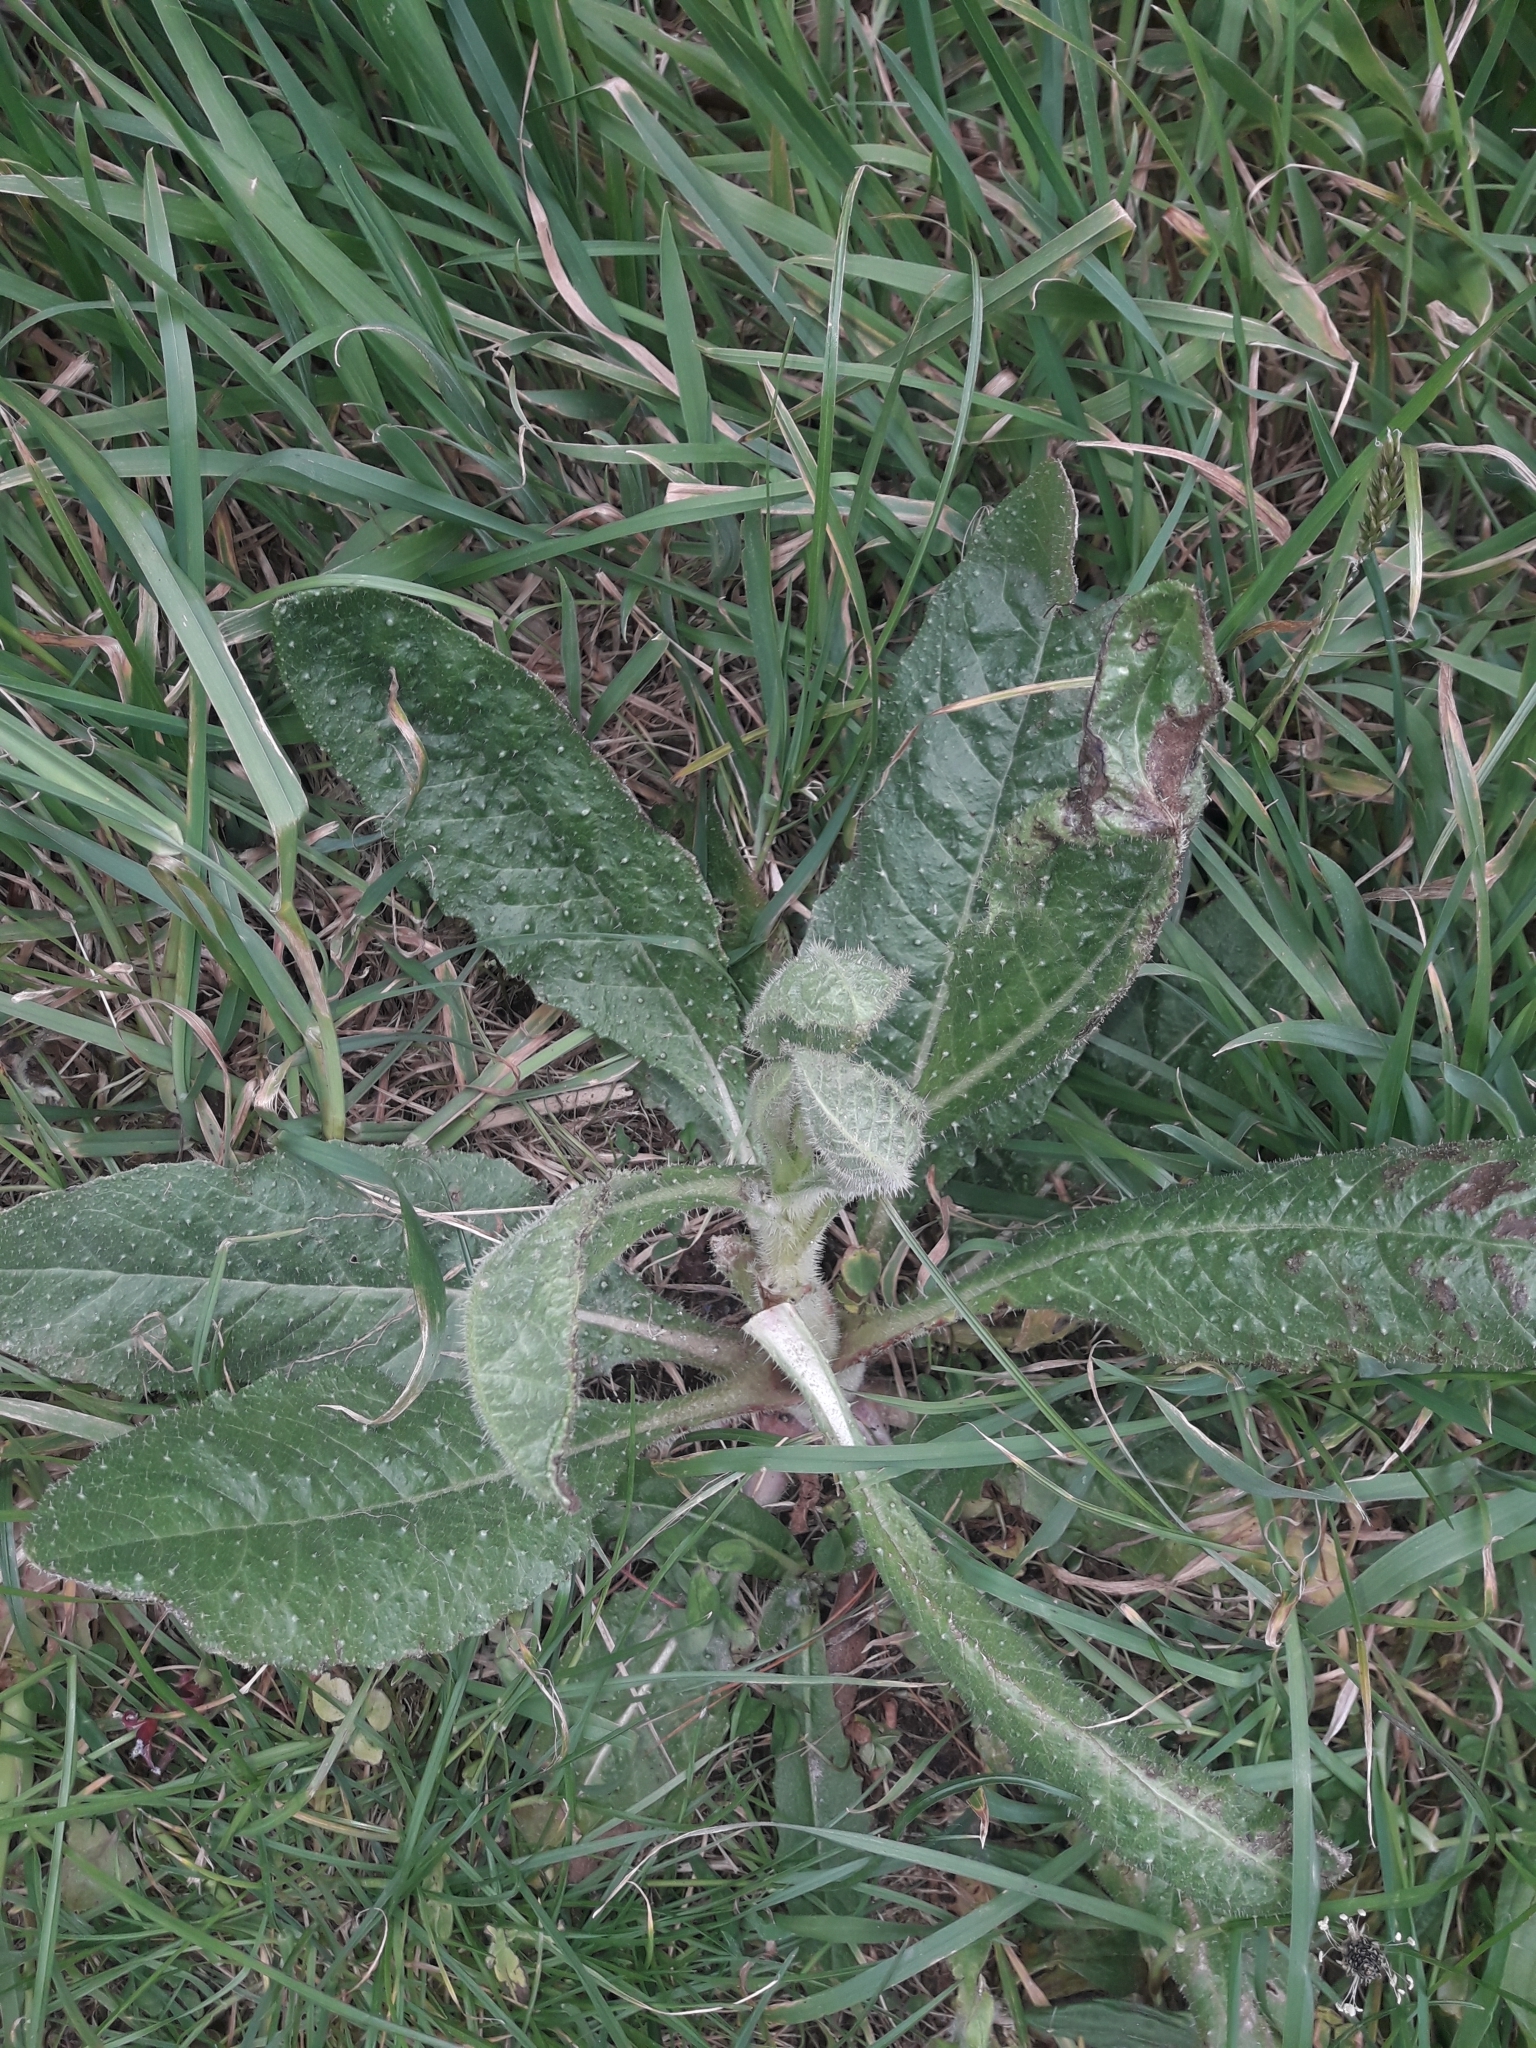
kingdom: Plantae
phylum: Tracheophyta
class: Magnoliopsida
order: Asterales
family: Asteraceae
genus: Helminthotheca
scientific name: Helminthotheca echioides
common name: Ox-tongue
